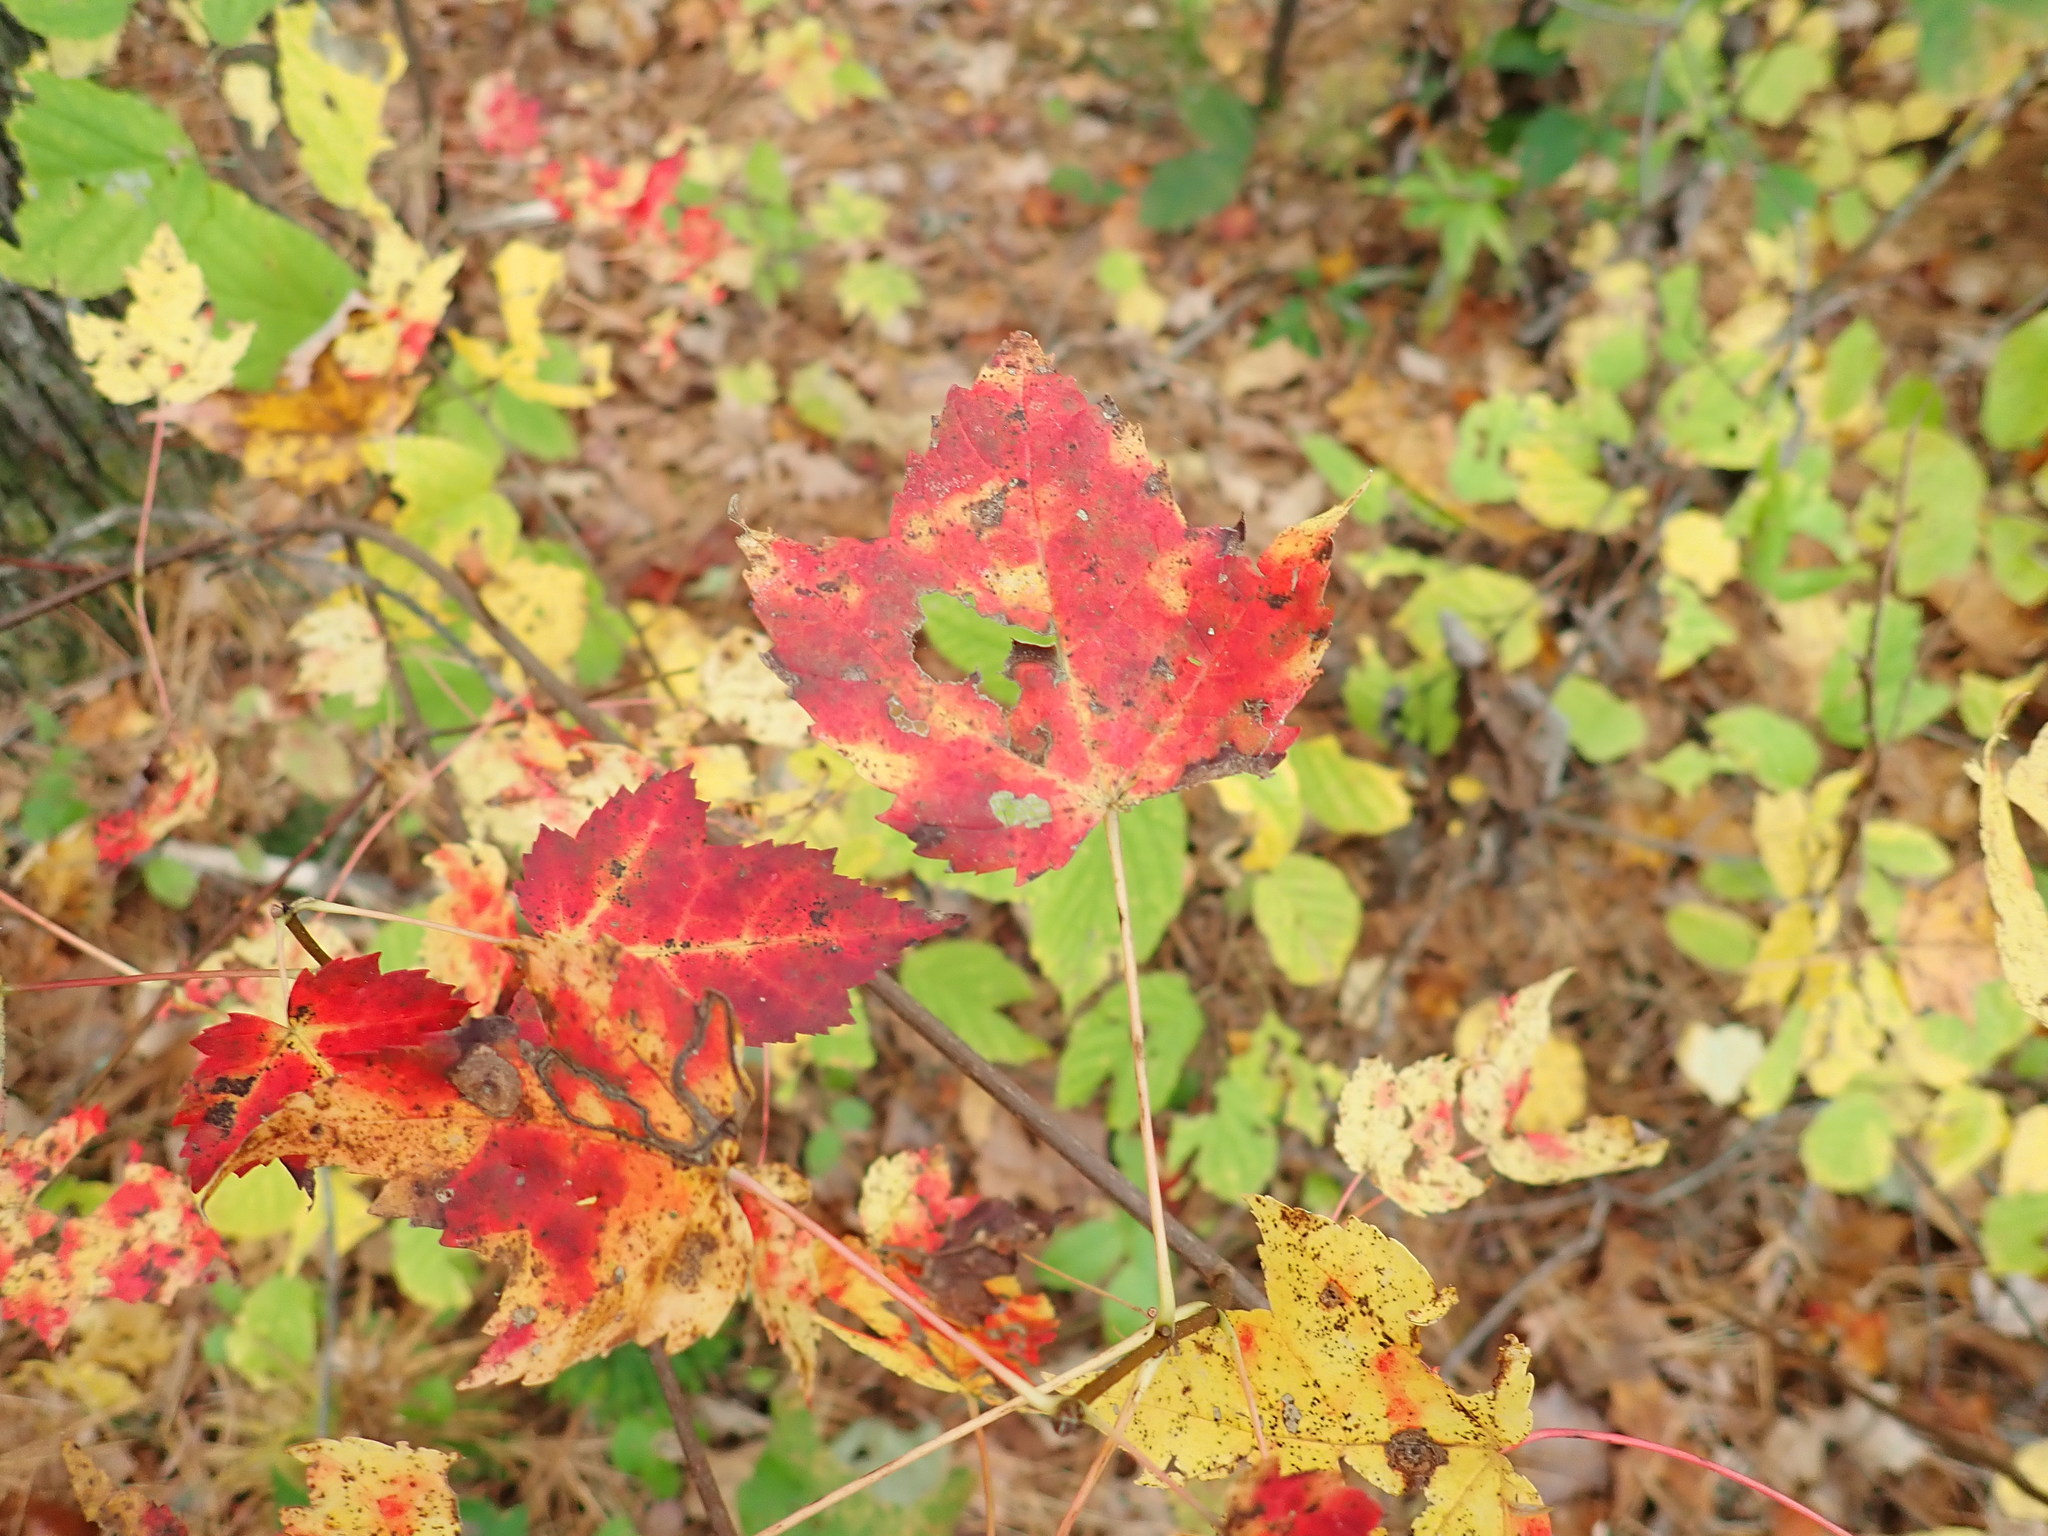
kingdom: Plantae
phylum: Tracheophyta
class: Magnoliopsida
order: Sapindales
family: Sapindaceae
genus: Acer
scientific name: Acer rubrum
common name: Red maple
